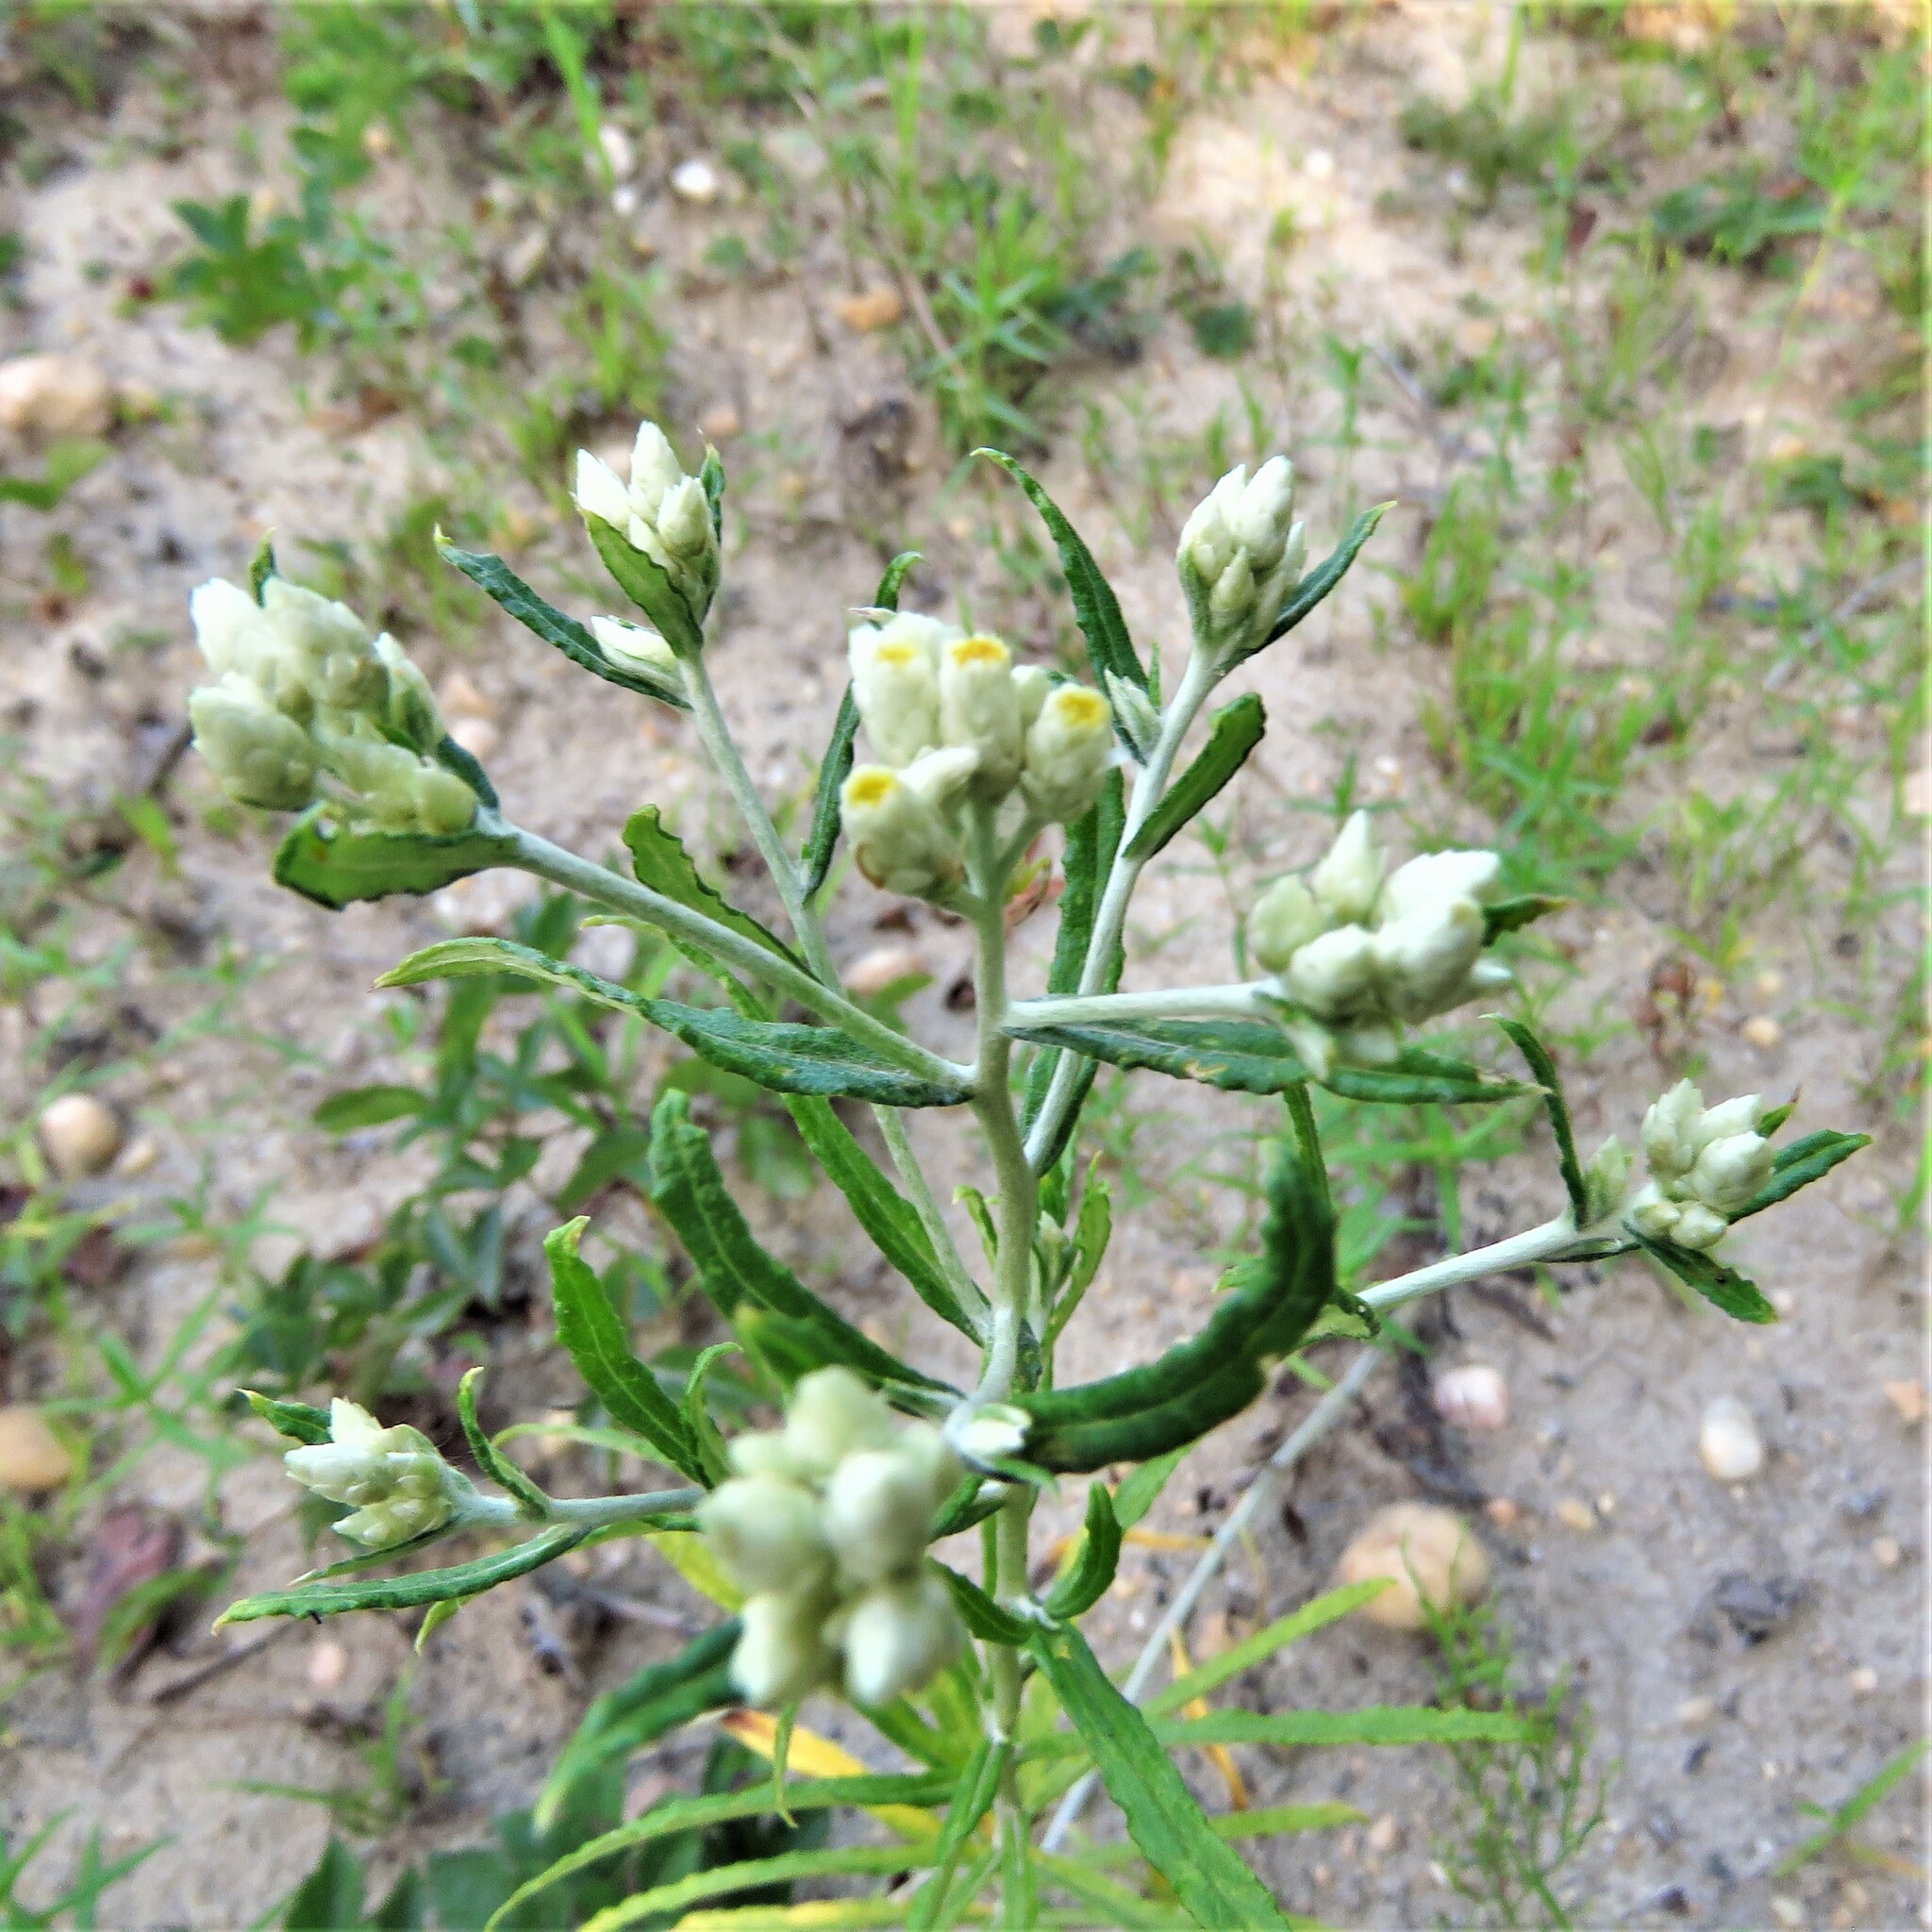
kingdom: Plantae
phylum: Tracheophyta
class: Magnoliopsida
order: Asterales
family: Asteraceae
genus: Pseudognaphalium
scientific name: Pseudognaphalium obtusifolium
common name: Eastern rabbit-tobacco
